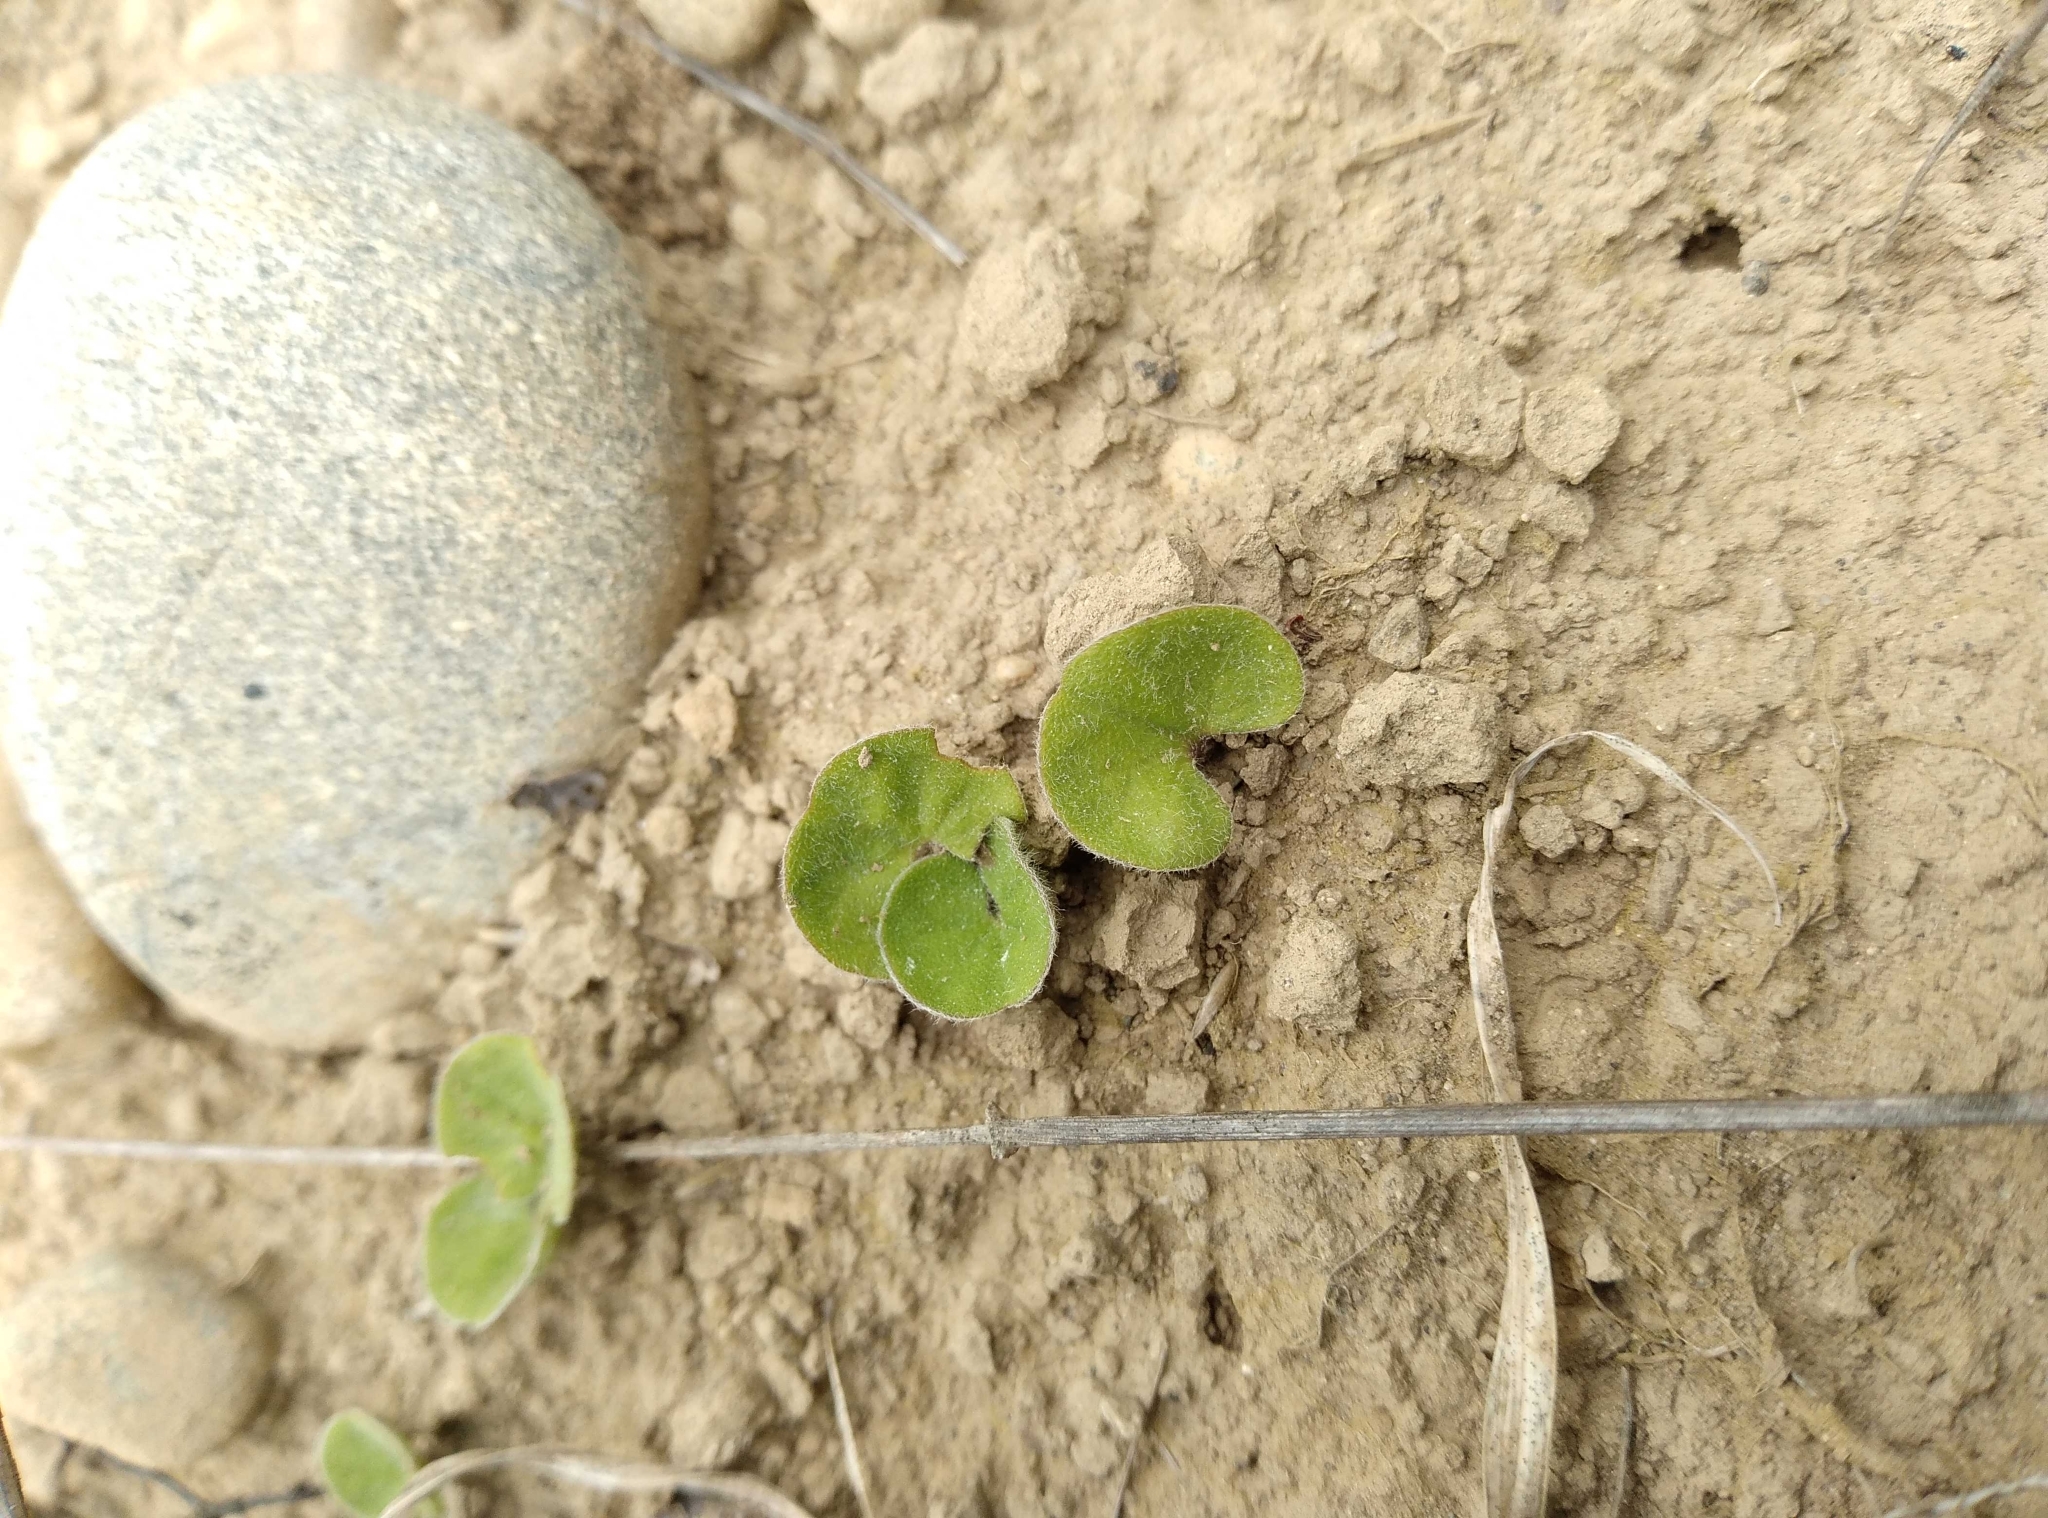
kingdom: Plantae
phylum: Tracheophyta
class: Magnoliopsida
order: Solanales
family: Convolvulaceae
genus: Dichondra
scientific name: Dichondra repens
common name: Kidneyweed
